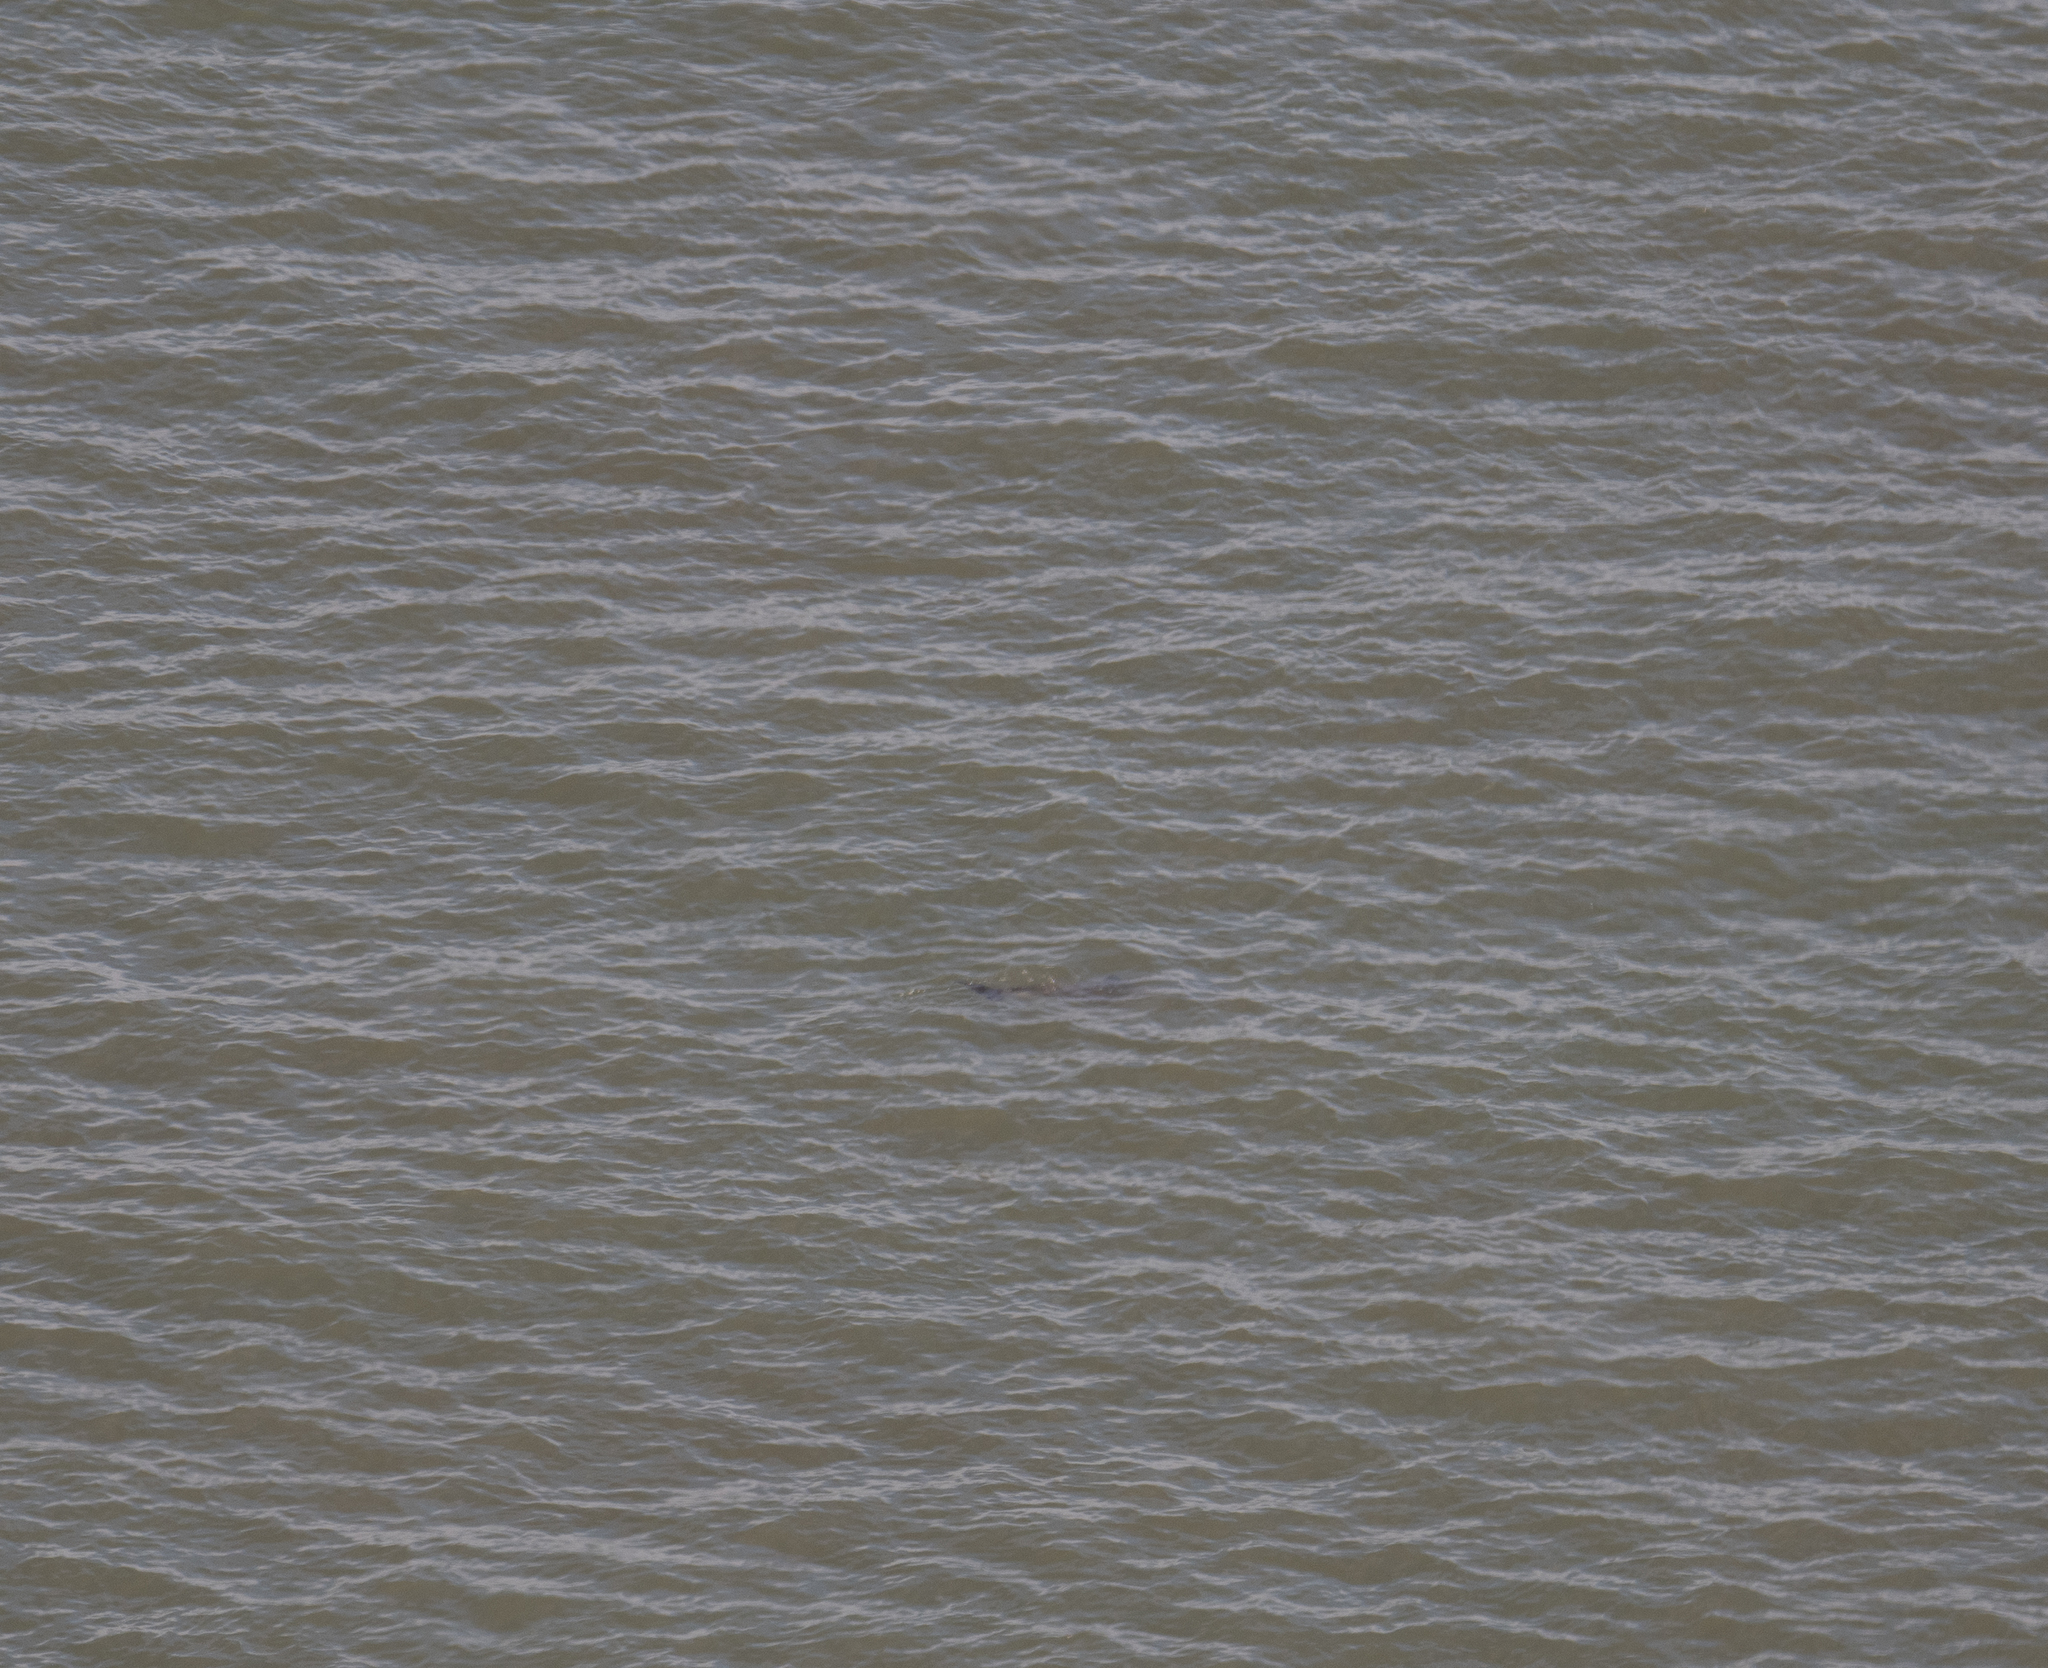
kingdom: Animalia
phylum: Chordata
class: Mammalia
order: Cetacea
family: Phocoenidae
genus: Phocoena
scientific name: Phocoena phocoena
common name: Harbor porpoise
